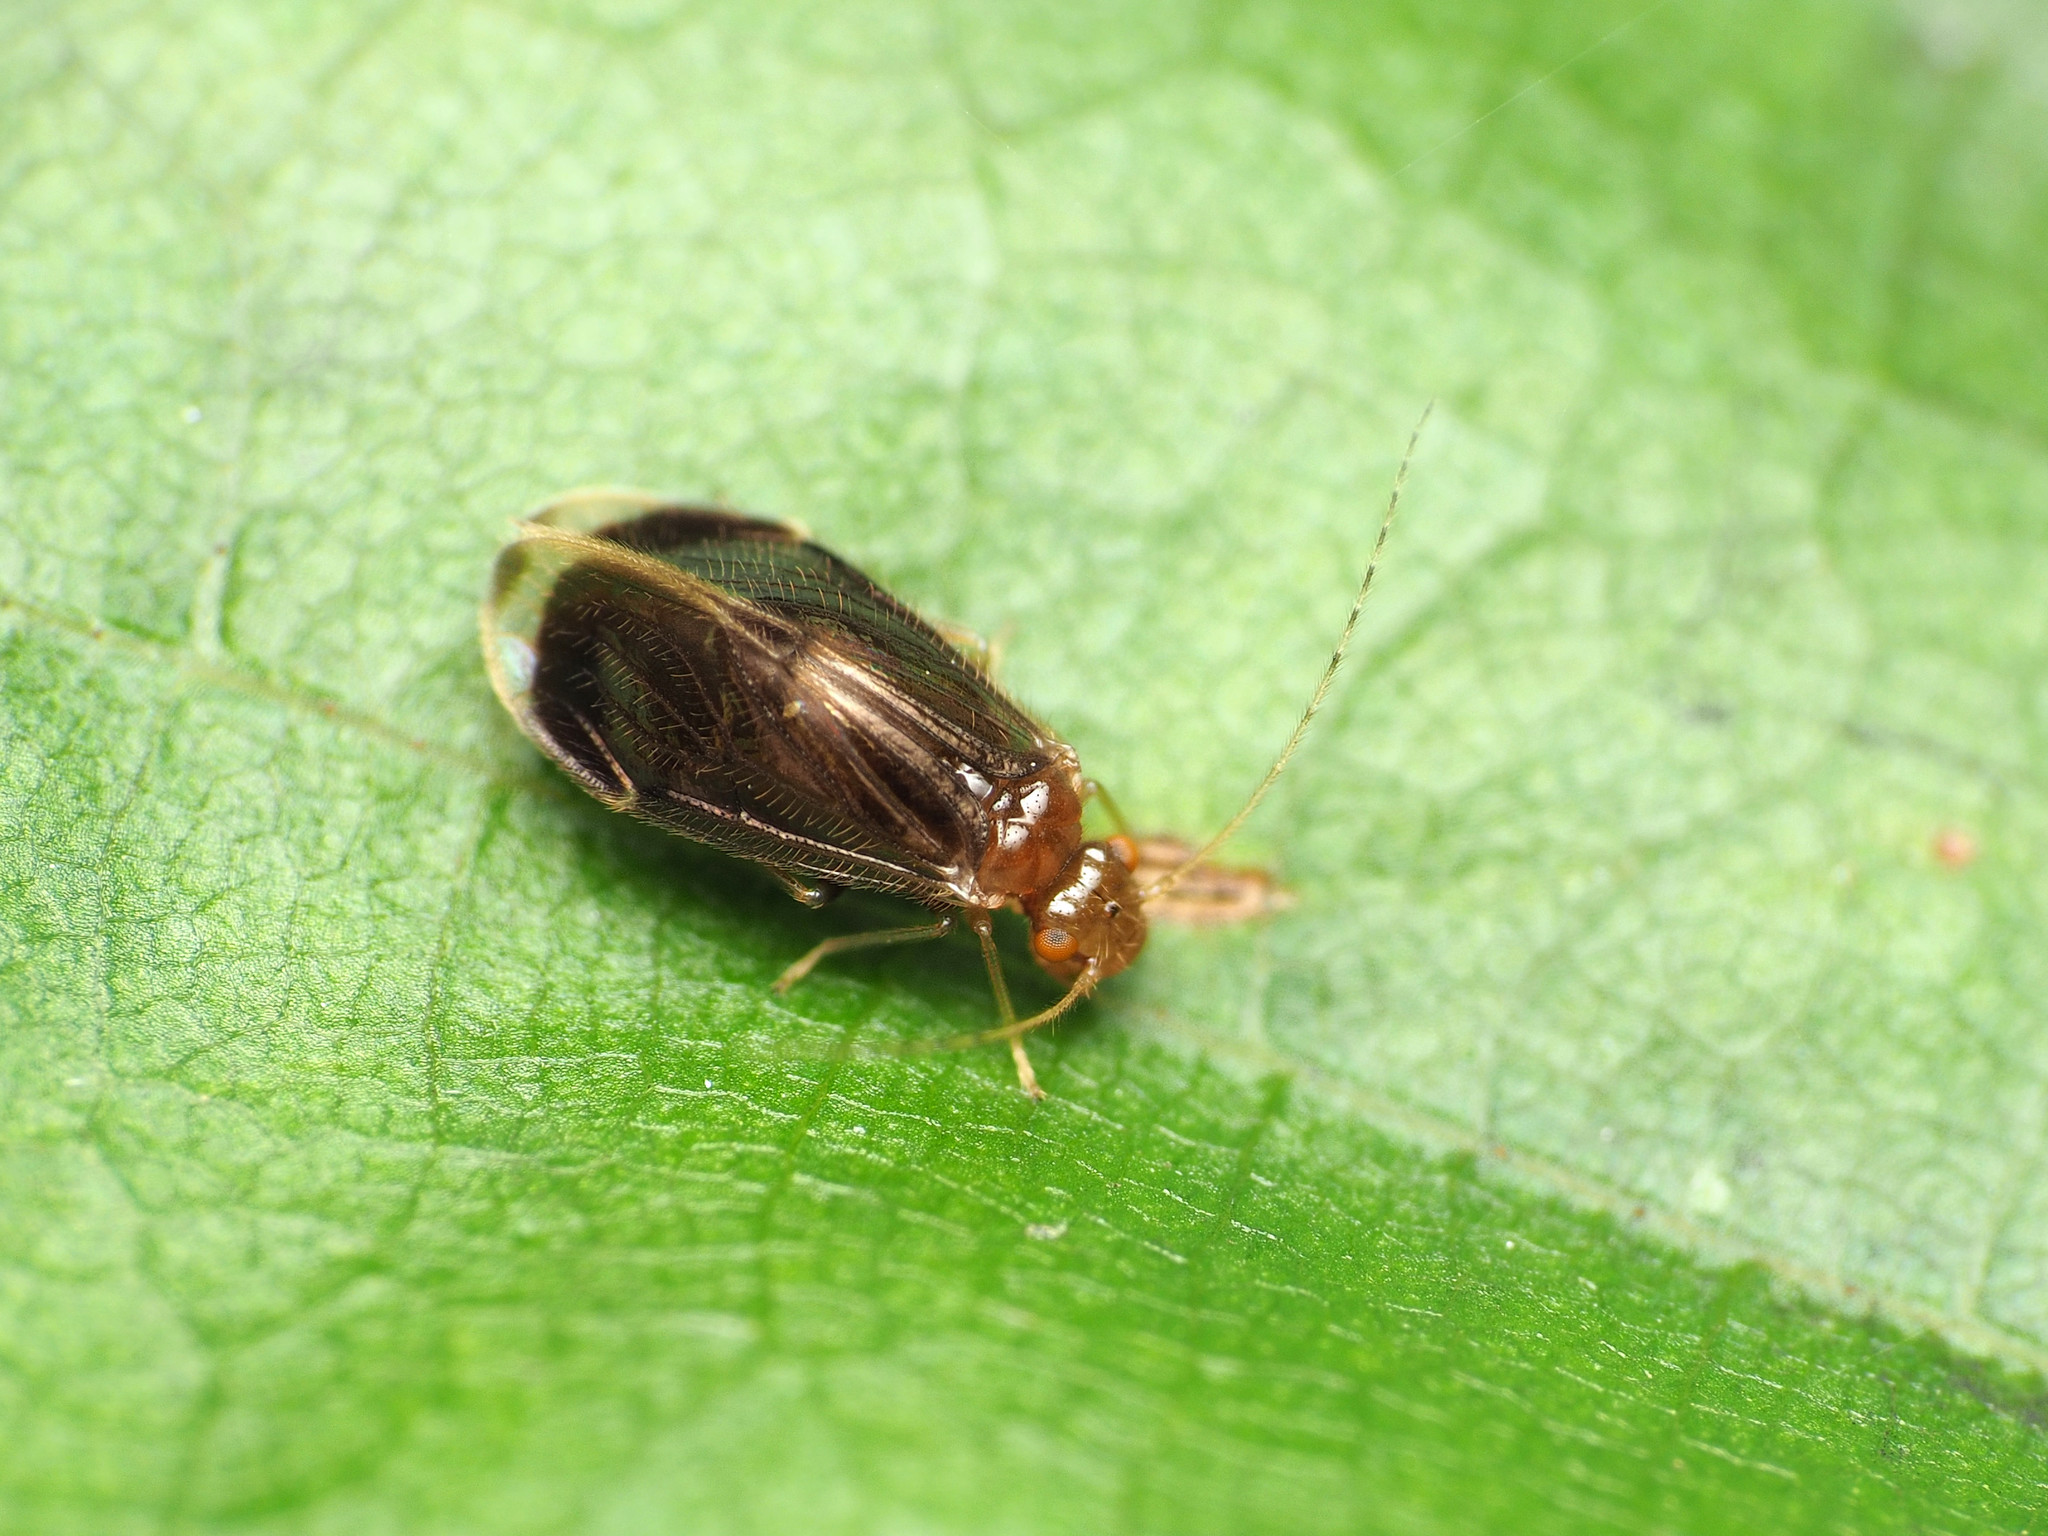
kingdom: Animalia
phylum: Arthropoda
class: Insecta
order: Psocodea
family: Amphipsocidae
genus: Polypsocus
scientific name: Polypsocus corruptus
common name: Corrupt barklouse
